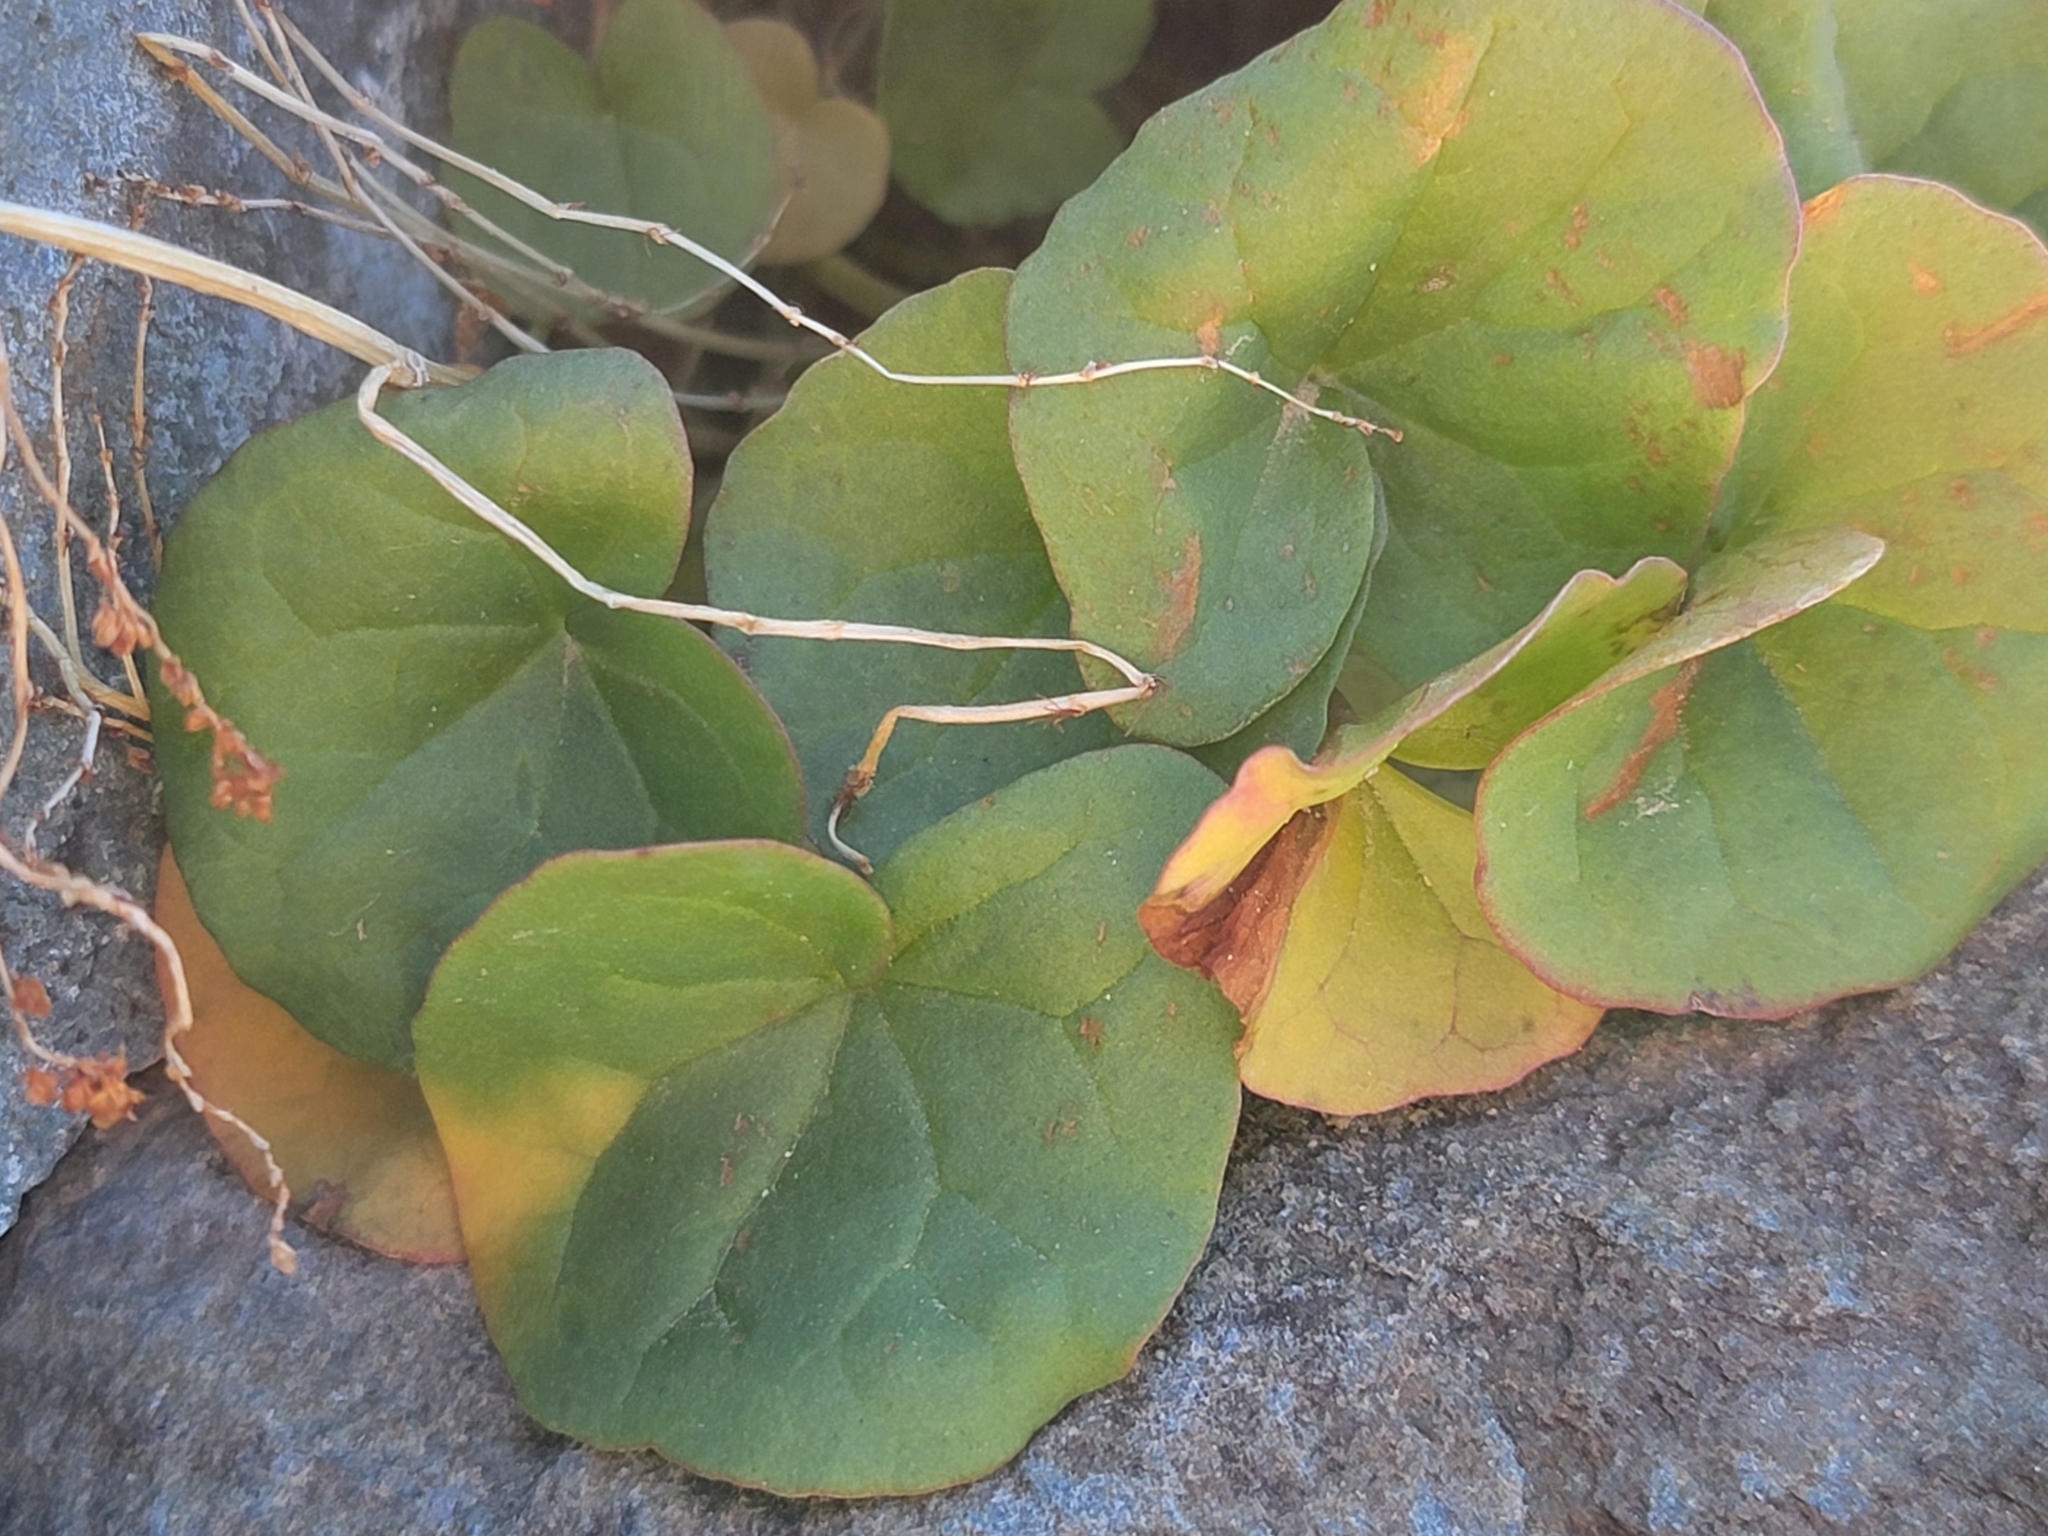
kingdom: Plantae
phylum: Tracheophyta
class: Magnoliopsida
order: Caryophyllales
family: Polygonaceae
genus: Oxyria
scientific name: Oxyria digyna
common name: Alpine mountain-sorrel
